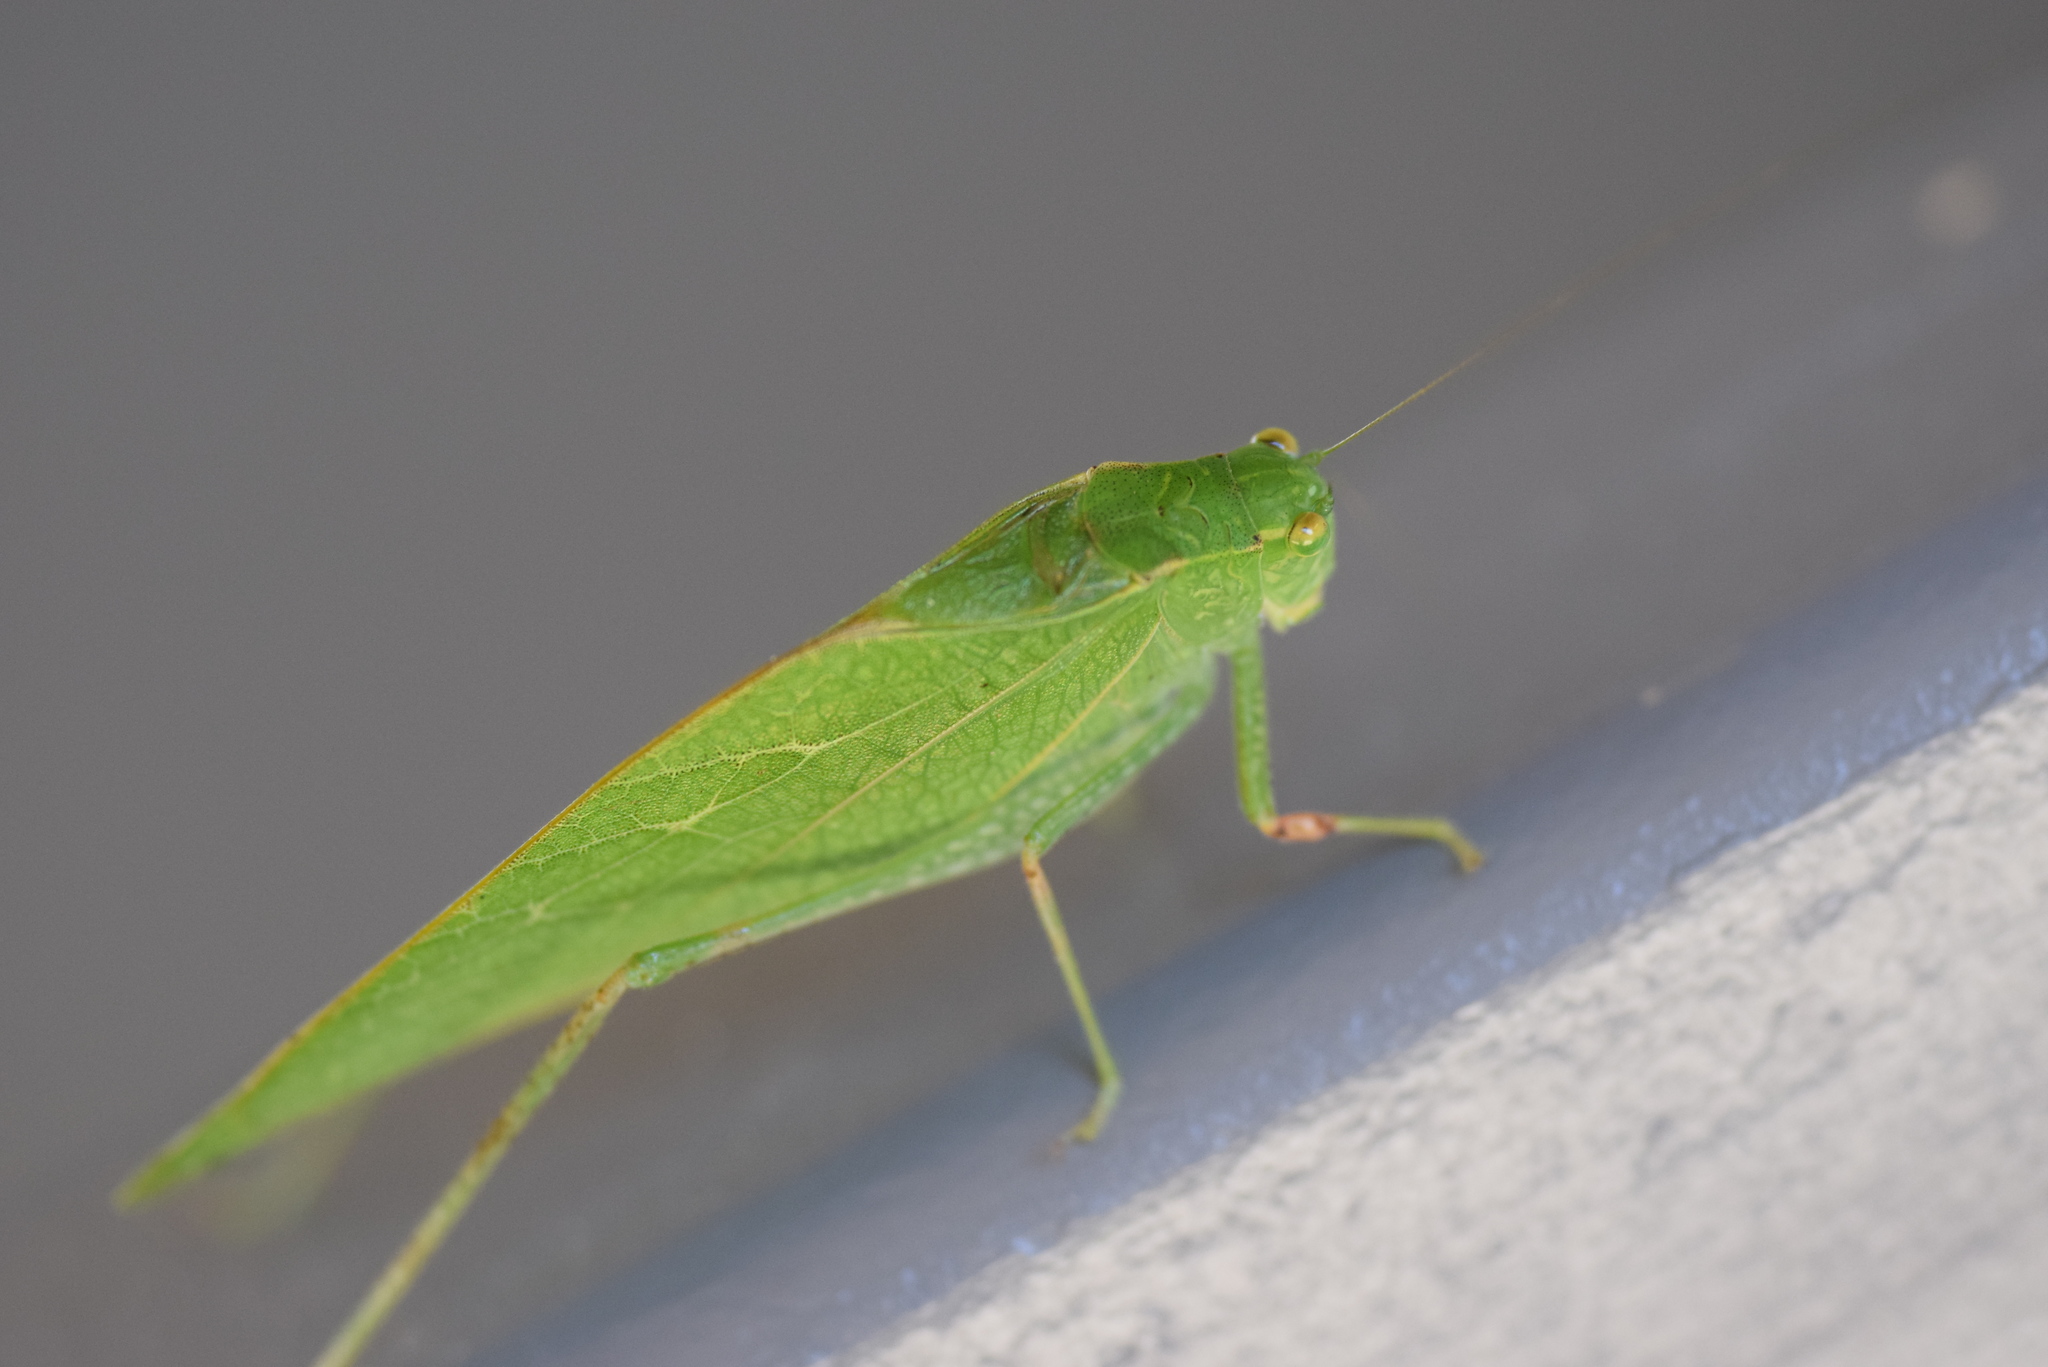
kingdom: Animalia
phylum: Arthropoda
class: Insecta
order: Orthoptera
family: Tettigoniidae
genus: Microcentrum
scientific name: Microcentrum retinerve
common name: Angular-winged katydid
